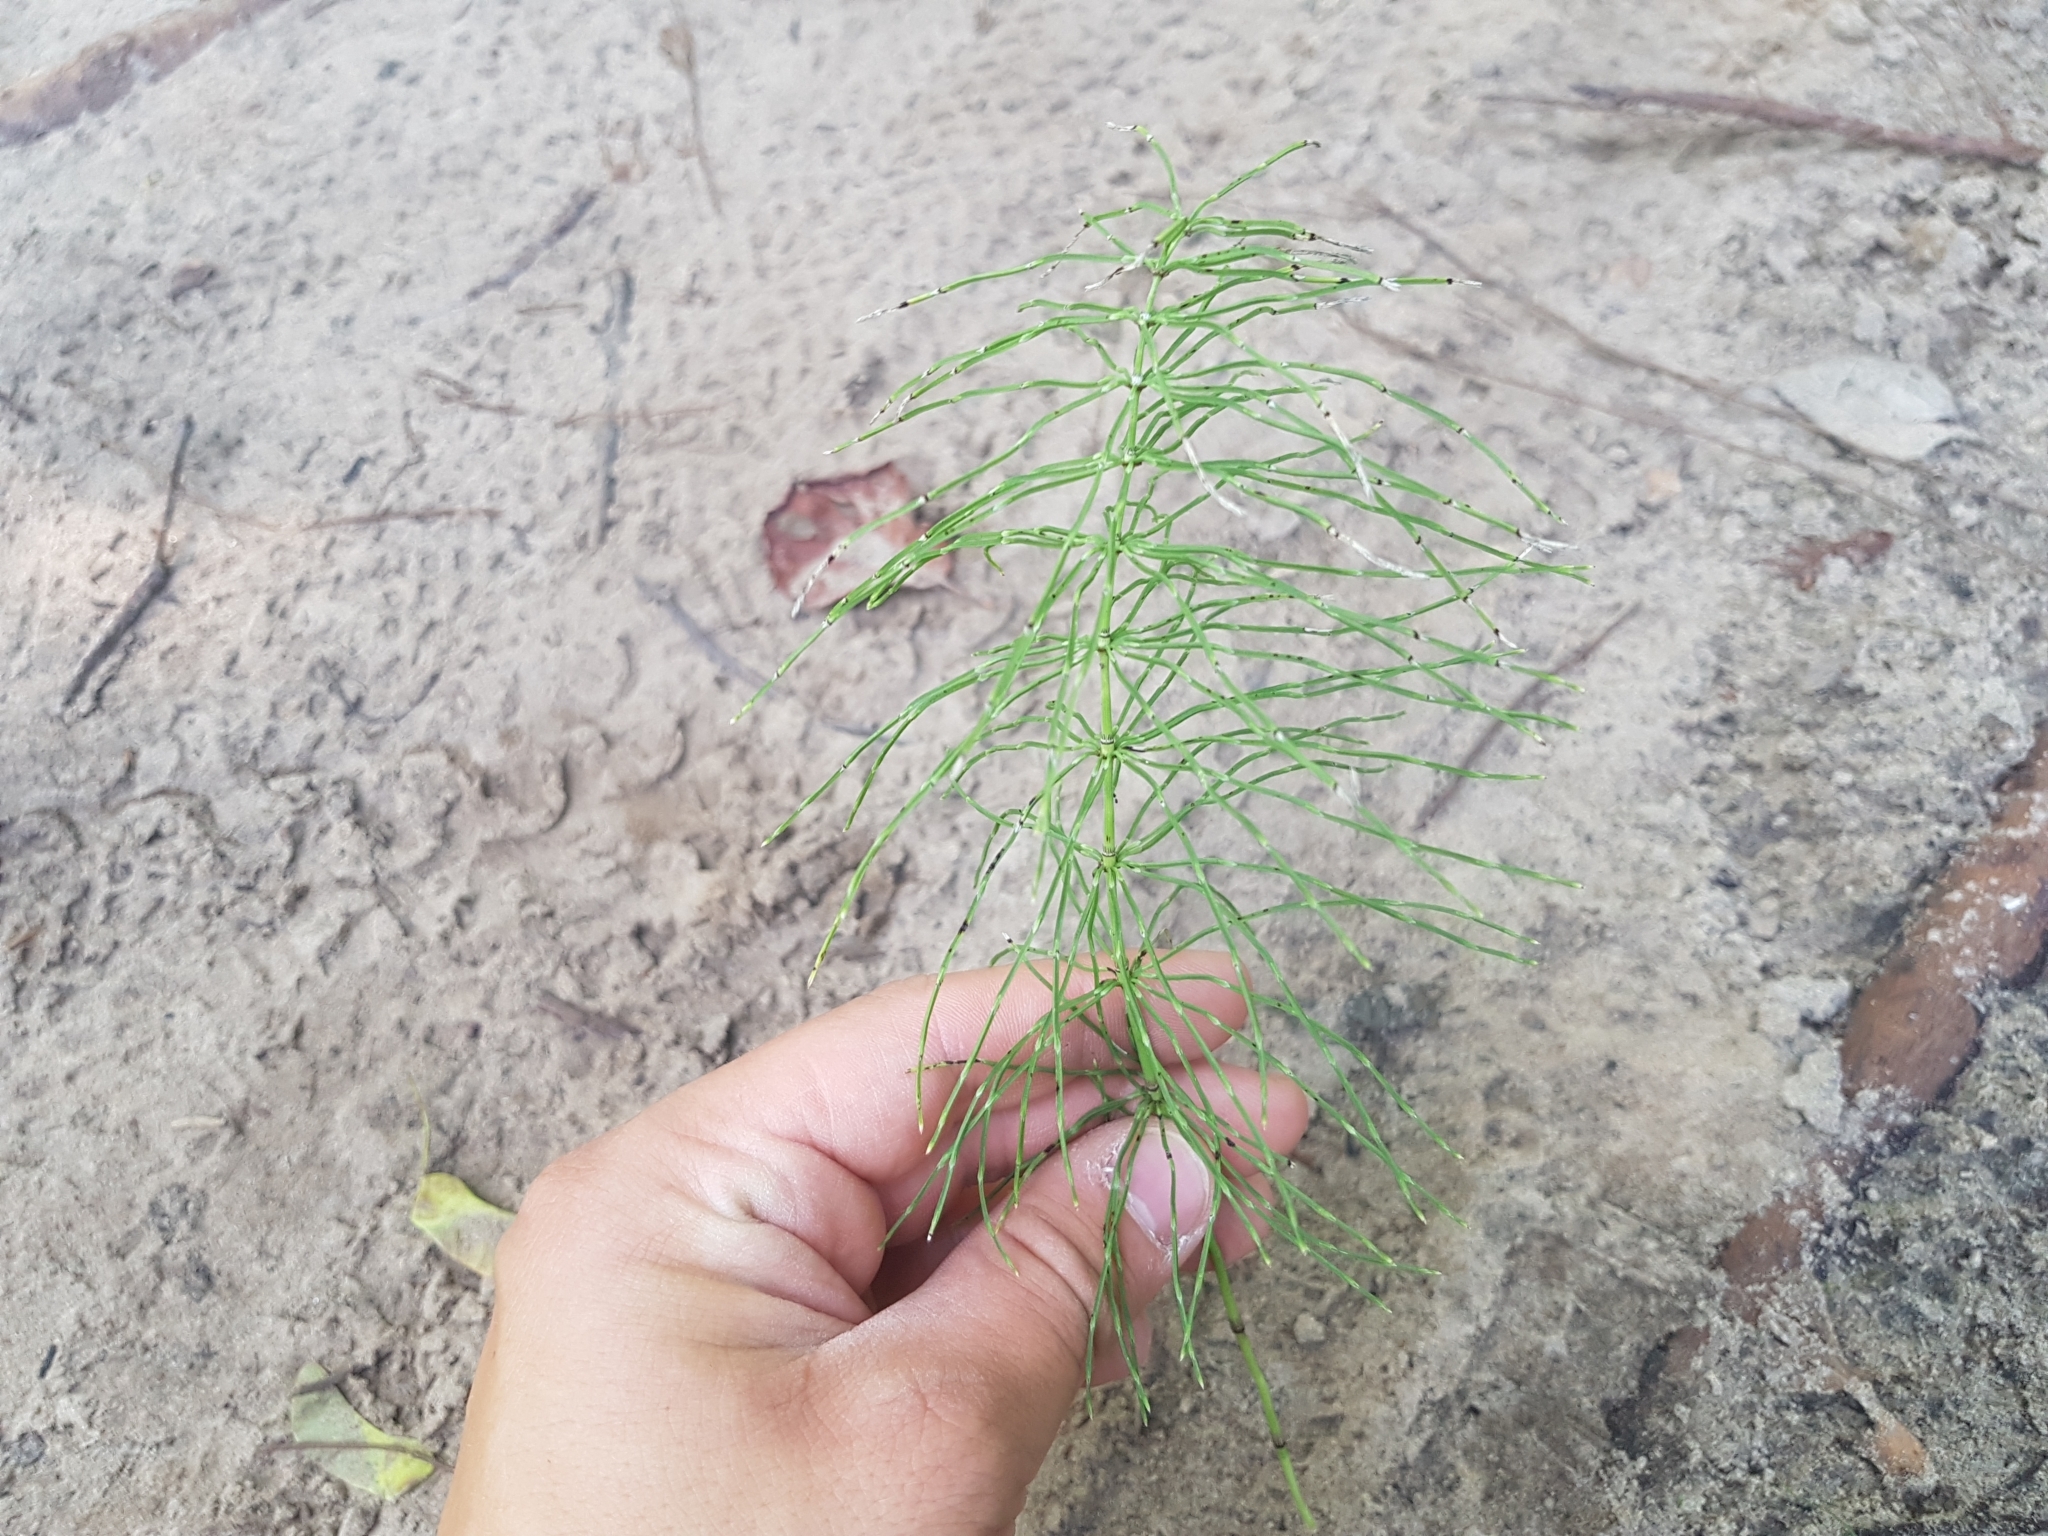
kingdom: Plantae
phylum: Tracheophyta
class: Polypodiopsida
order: Equisetales
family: Equisetaceae
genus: Equisetum
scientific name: Equisetum pratense
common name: Meadow horsetail
